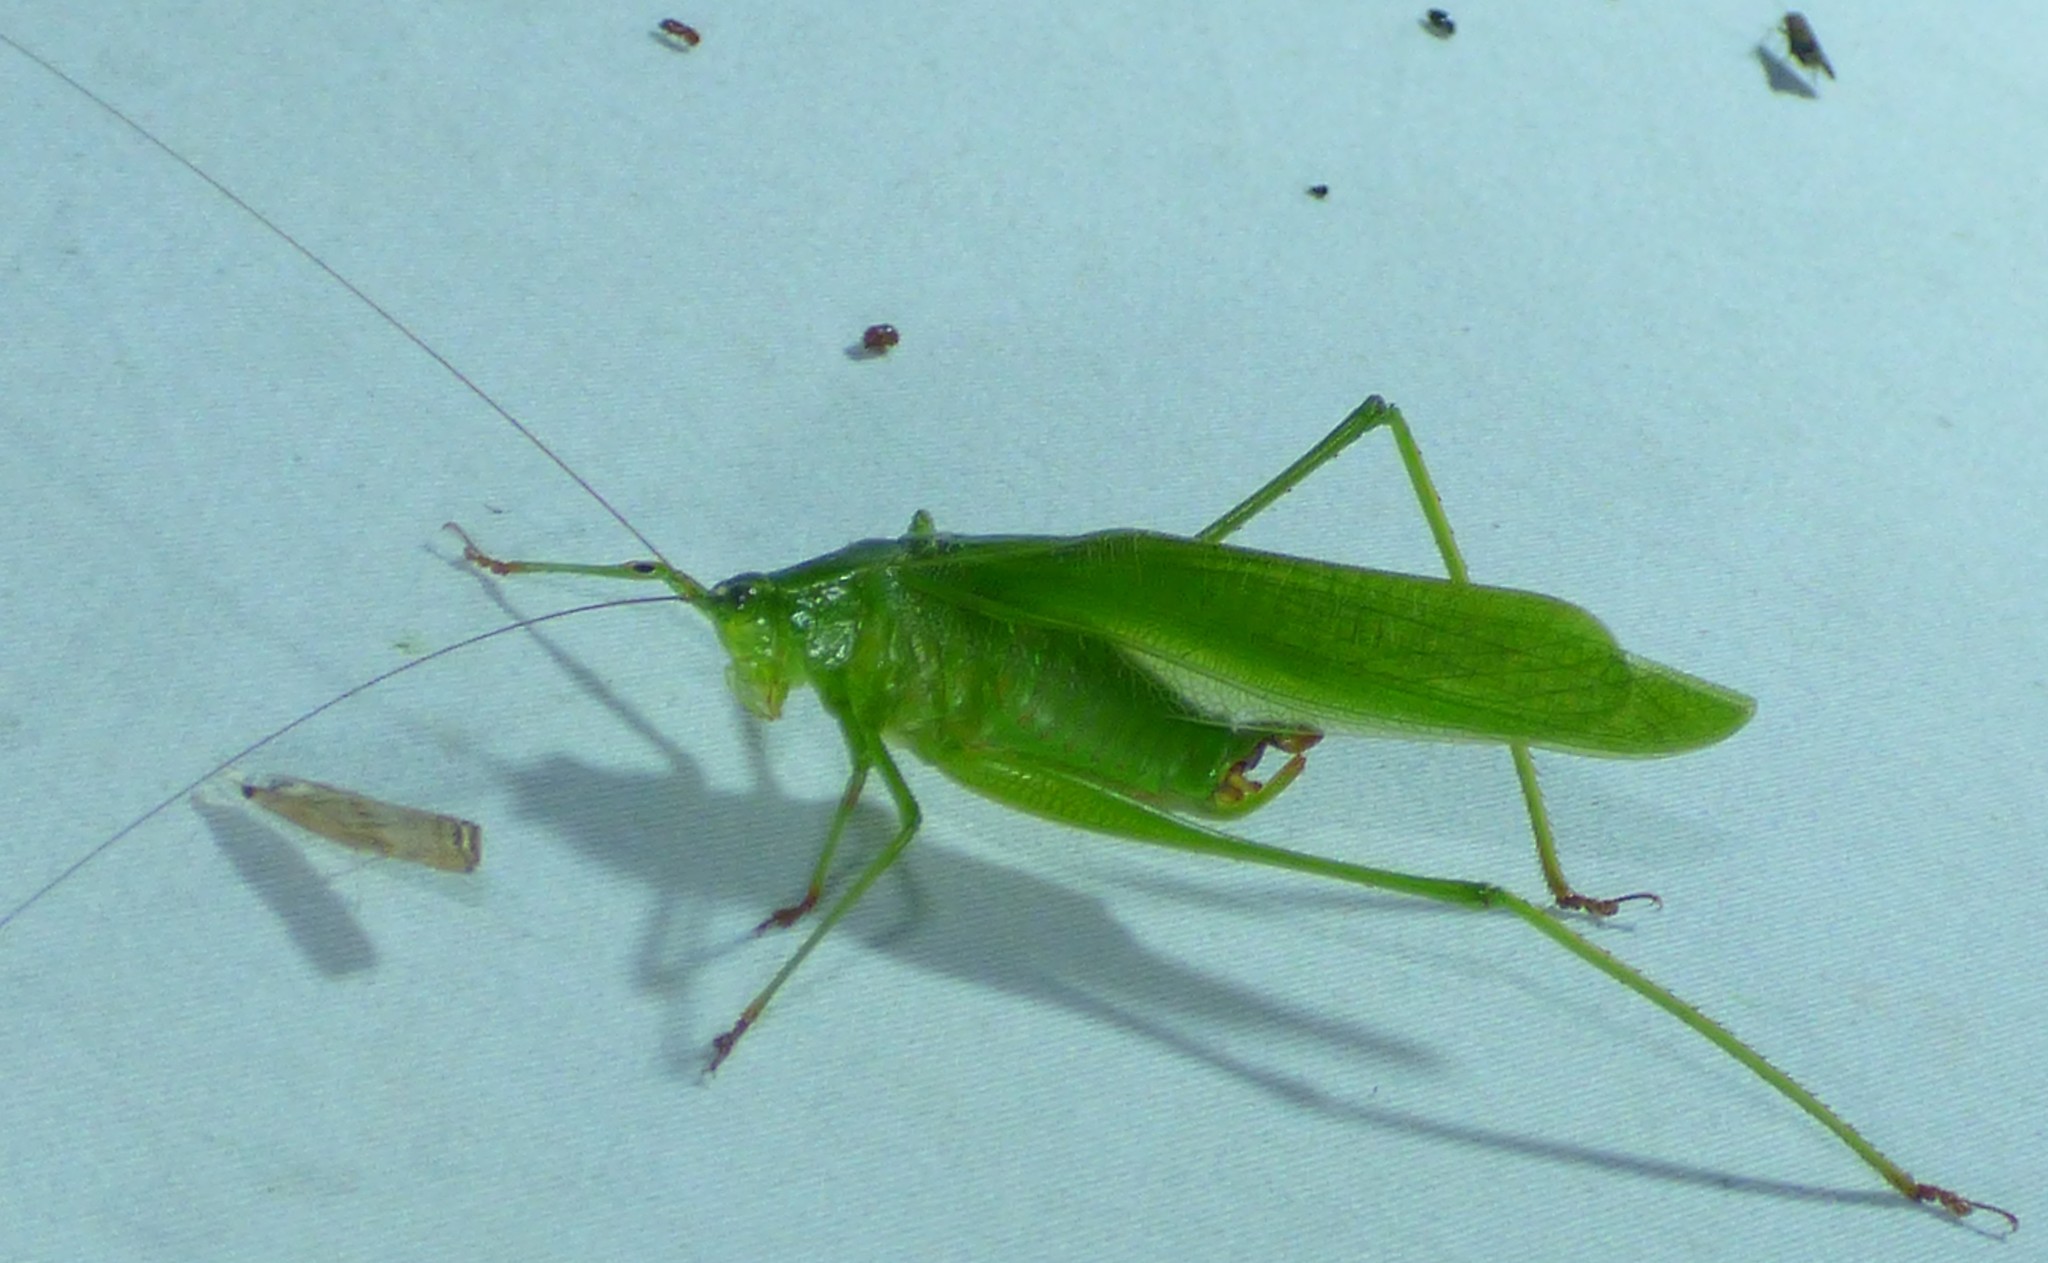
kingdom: Animalia
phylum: Arthropoda
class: Insecta
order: Orthoptera
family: Tettigoniidae
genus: Scudderia
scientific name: Scudderia furcata
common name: Fork-tailed bush katydid
